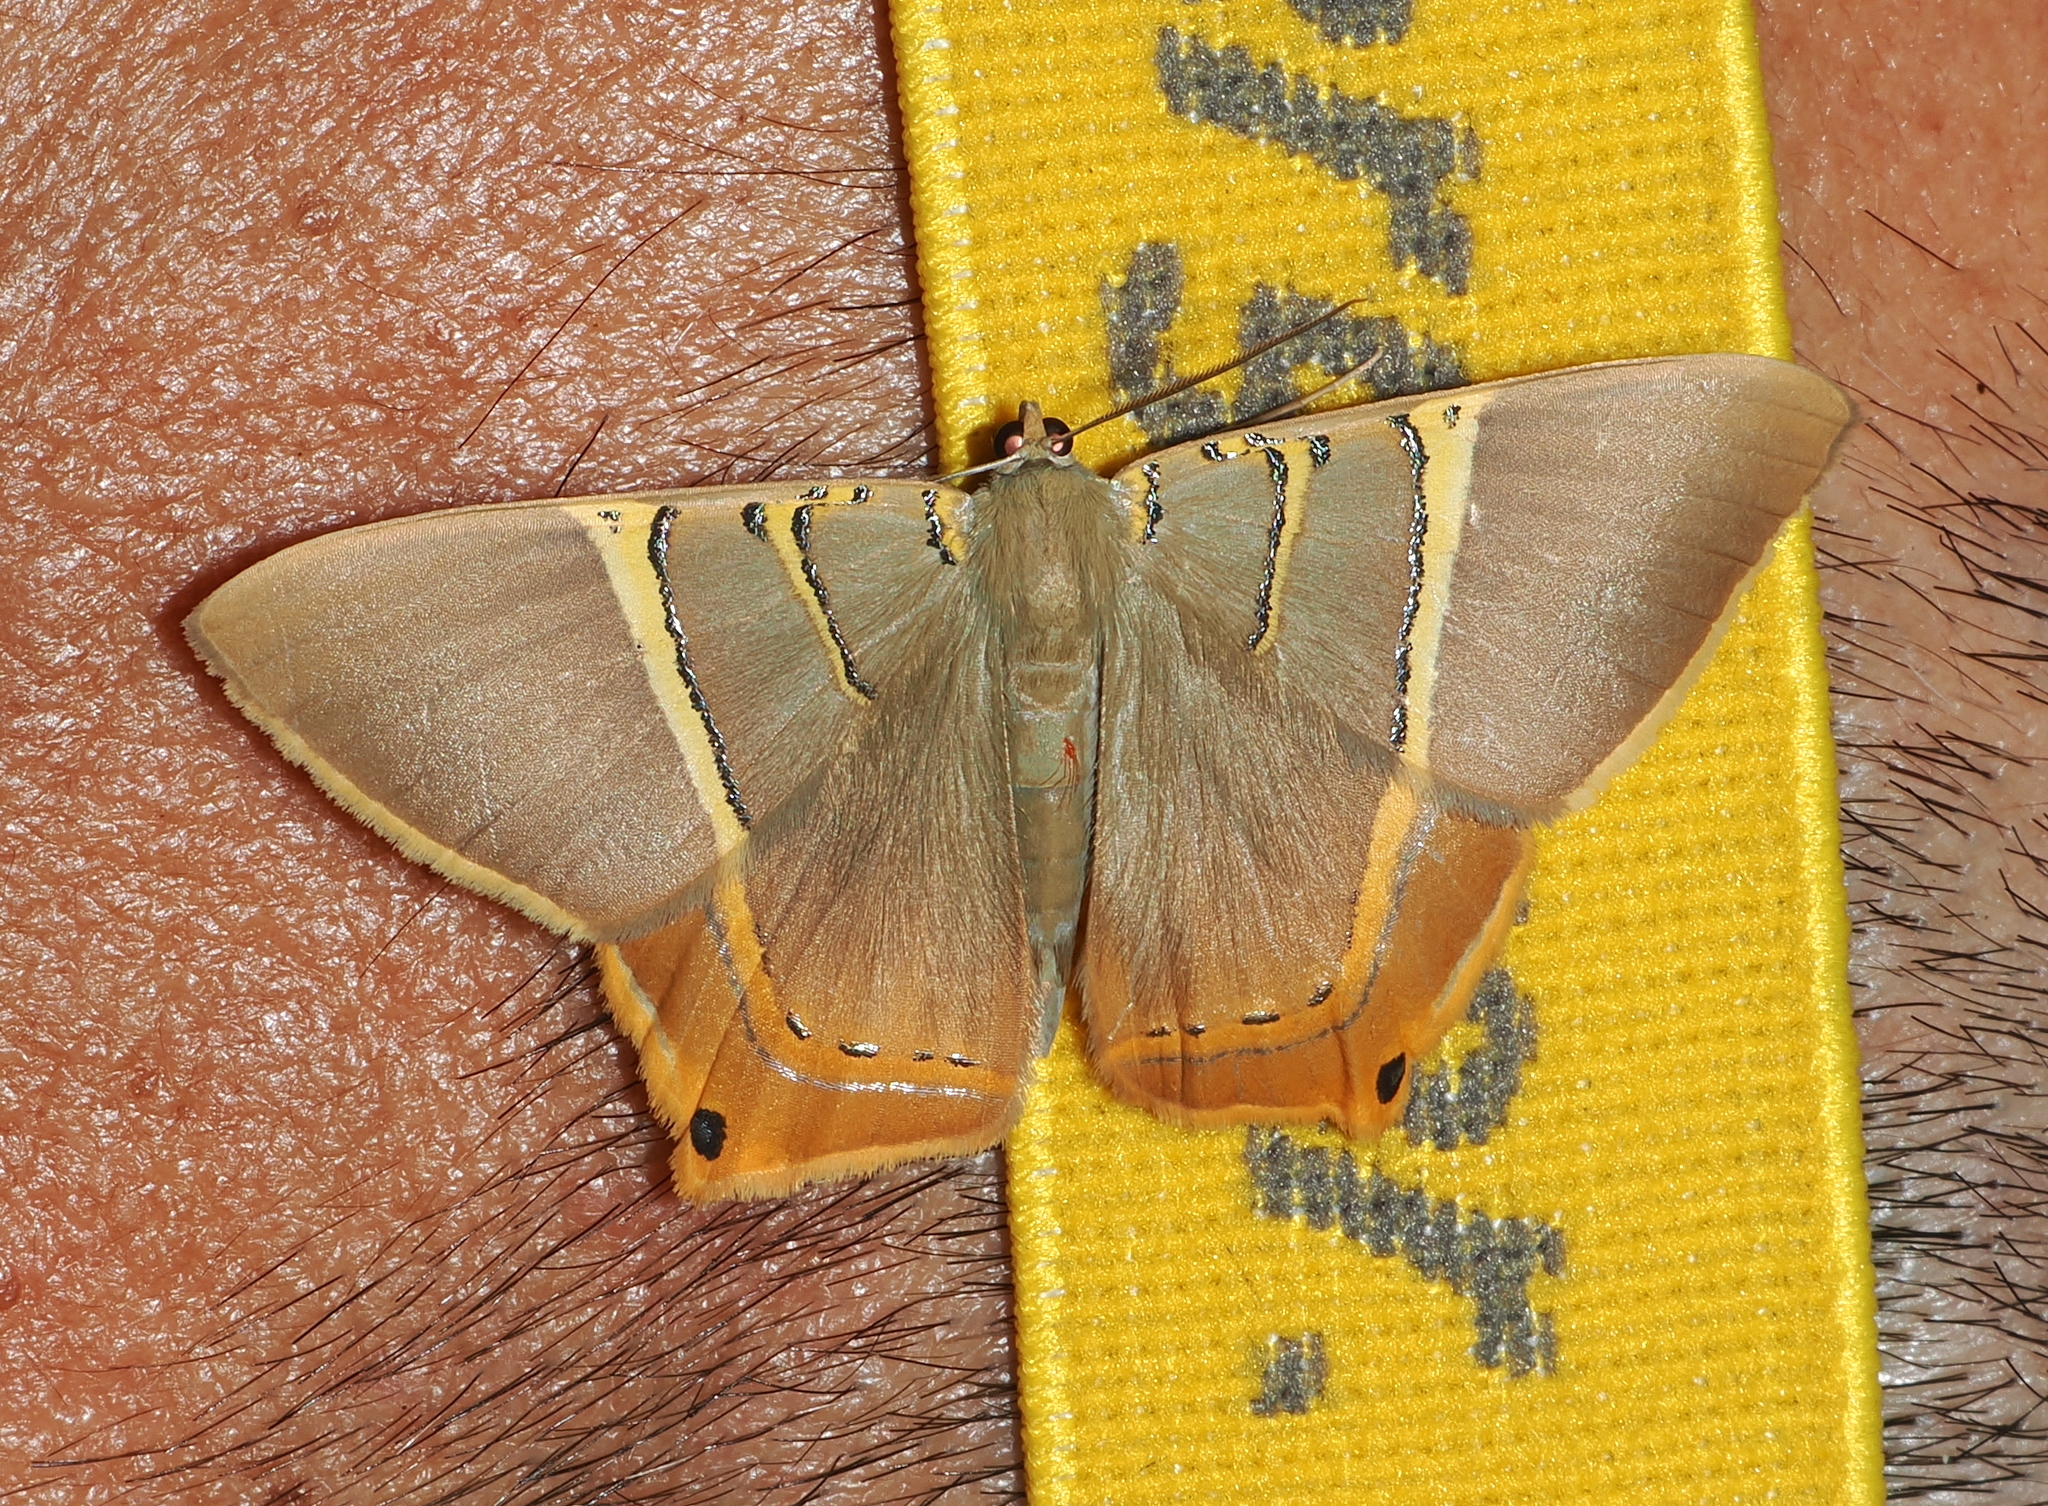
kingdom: Animalia
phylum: Arthropoda
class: Insecta
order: Lepidoptera
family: Geometridae
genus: Phrygionis
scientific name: Phrygionis polita
